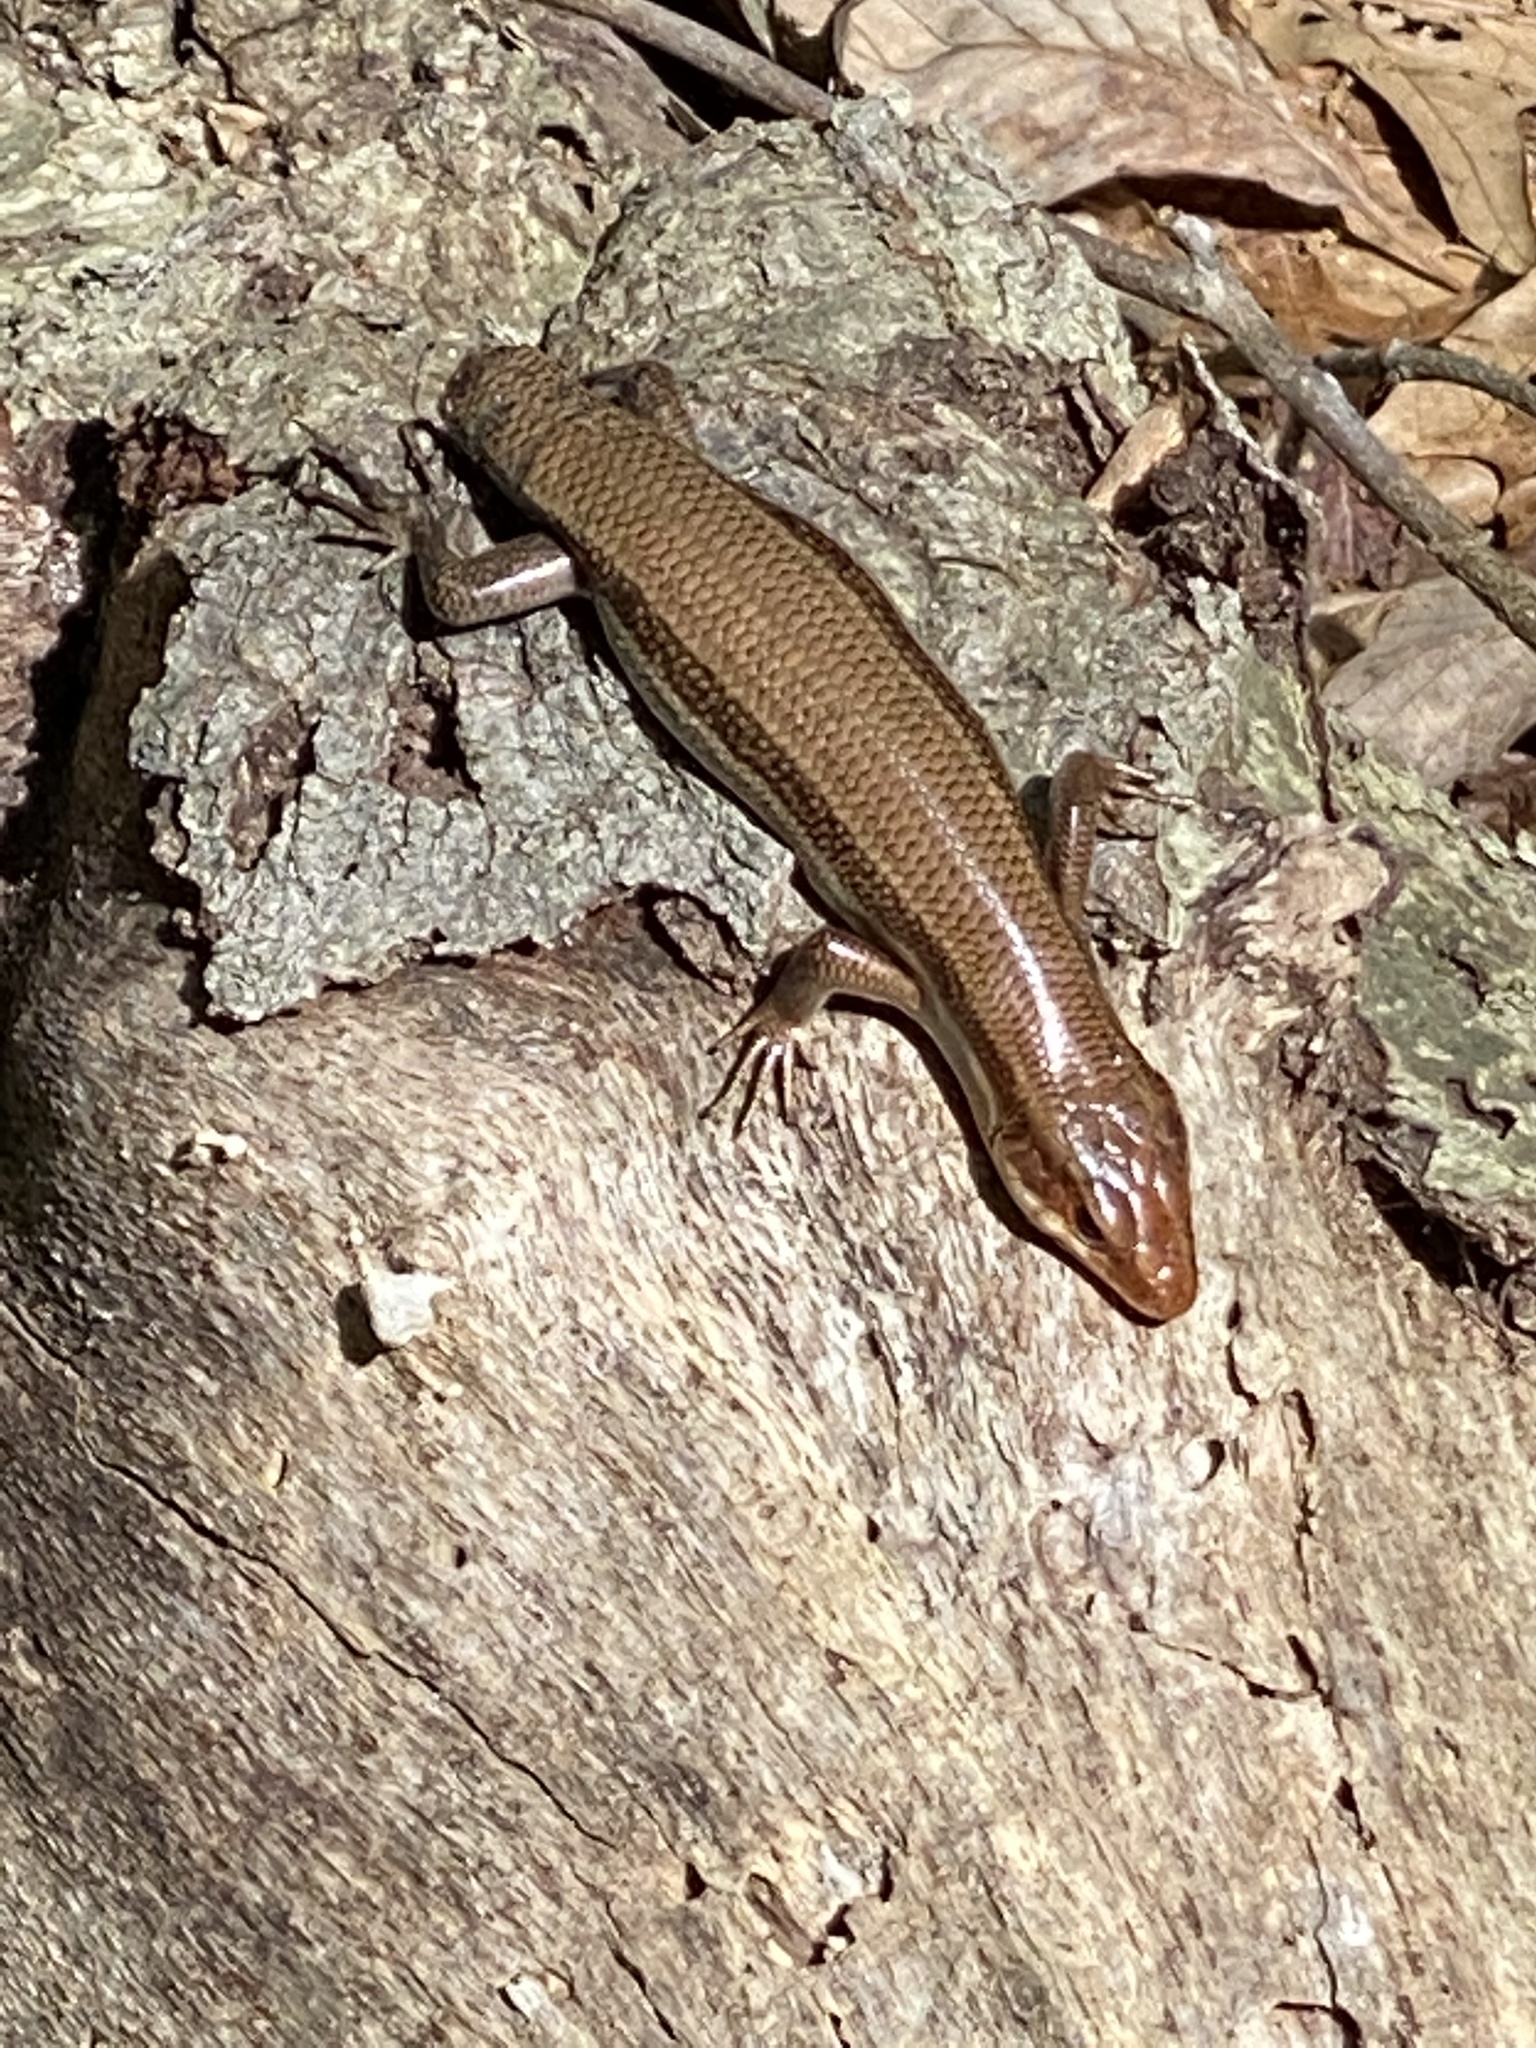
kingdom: Animalia
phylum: Chordata
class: Squamata
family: Scincidae
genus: Plestiodon
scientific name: Plestiodon laticeps
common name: Broadhead skink
